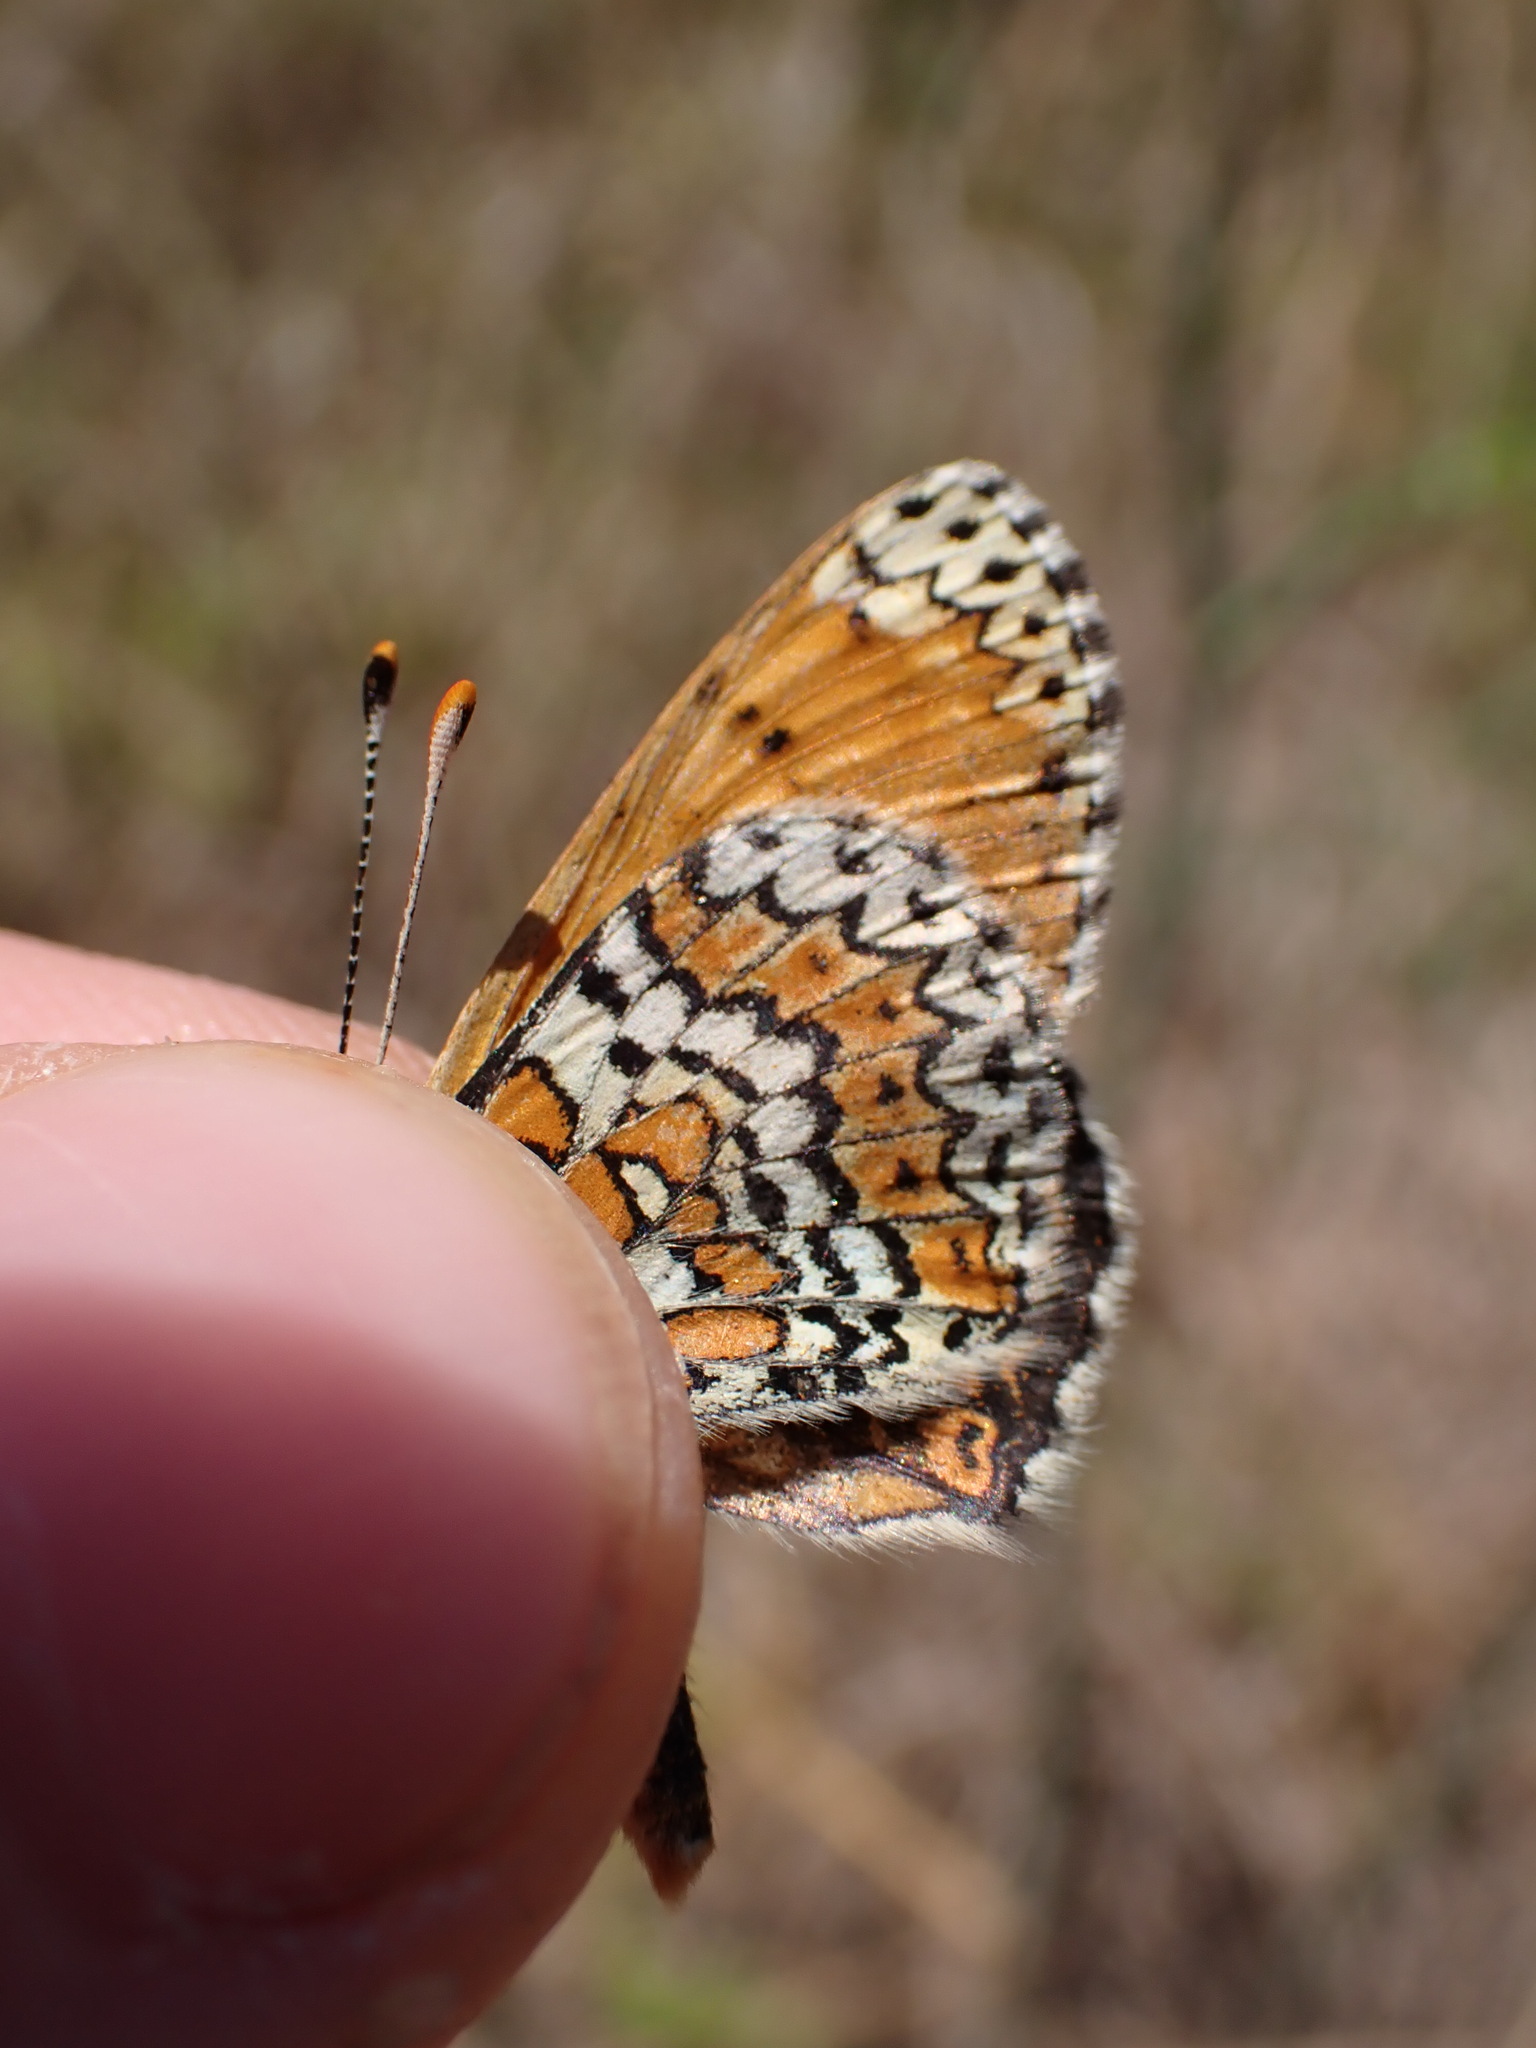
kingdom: Animalia
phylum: Arthropoda
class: Insecta
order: Lepidoptera
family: Nymphalidae
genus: Melitaea
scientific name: Melitaea cinxia
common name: Glanville fritillary
